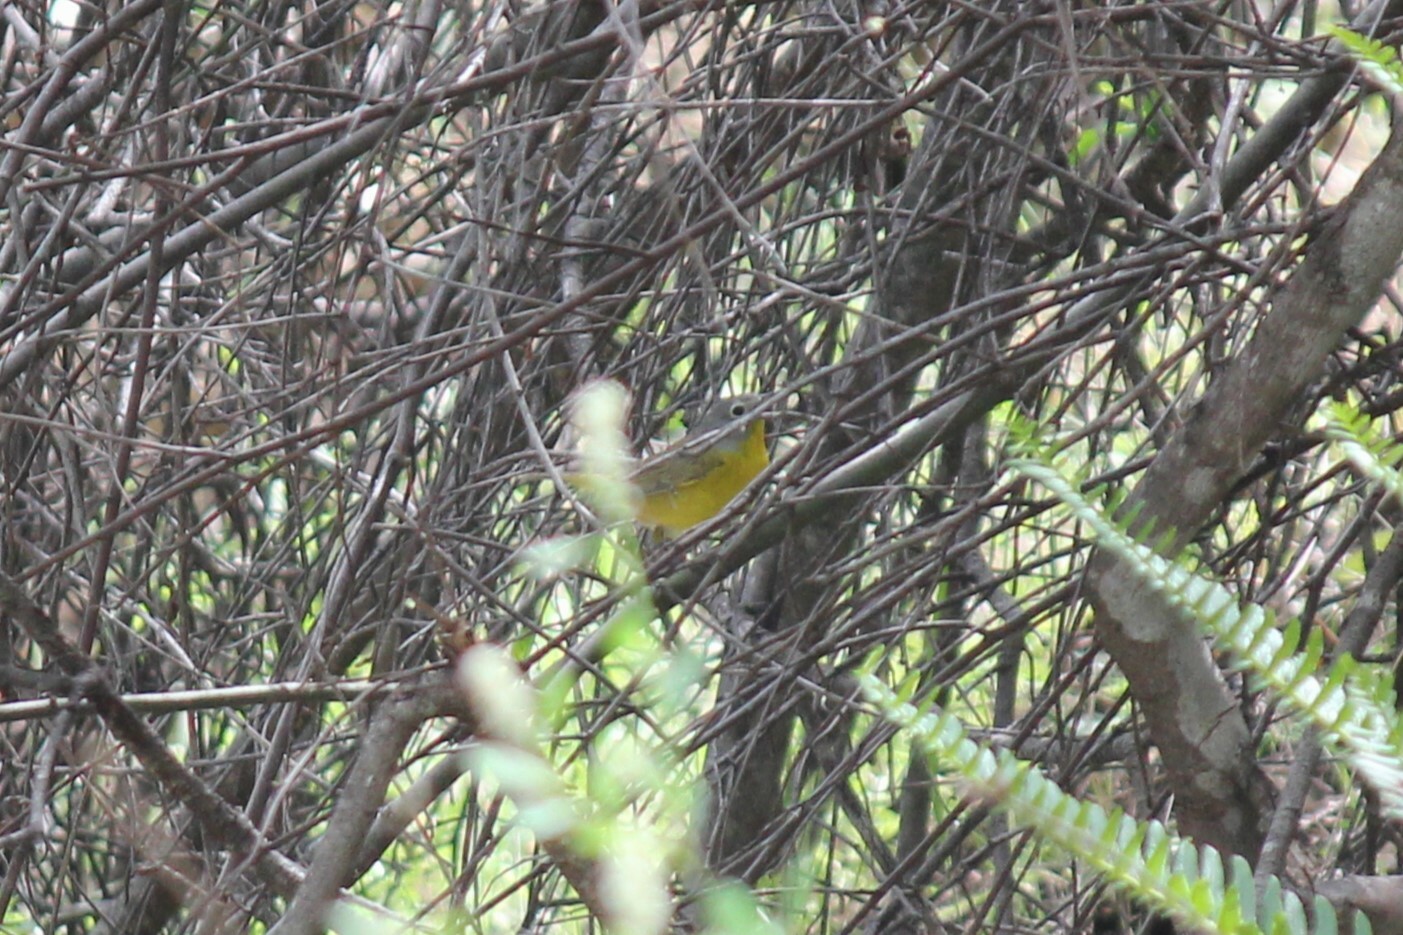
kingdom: Animalia
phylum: Chordata
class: Aves
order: Passeriformes
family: Parulidae
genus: Leiothlypis
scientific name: Leiothlypis ruficapilla
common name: Nashville warbler
